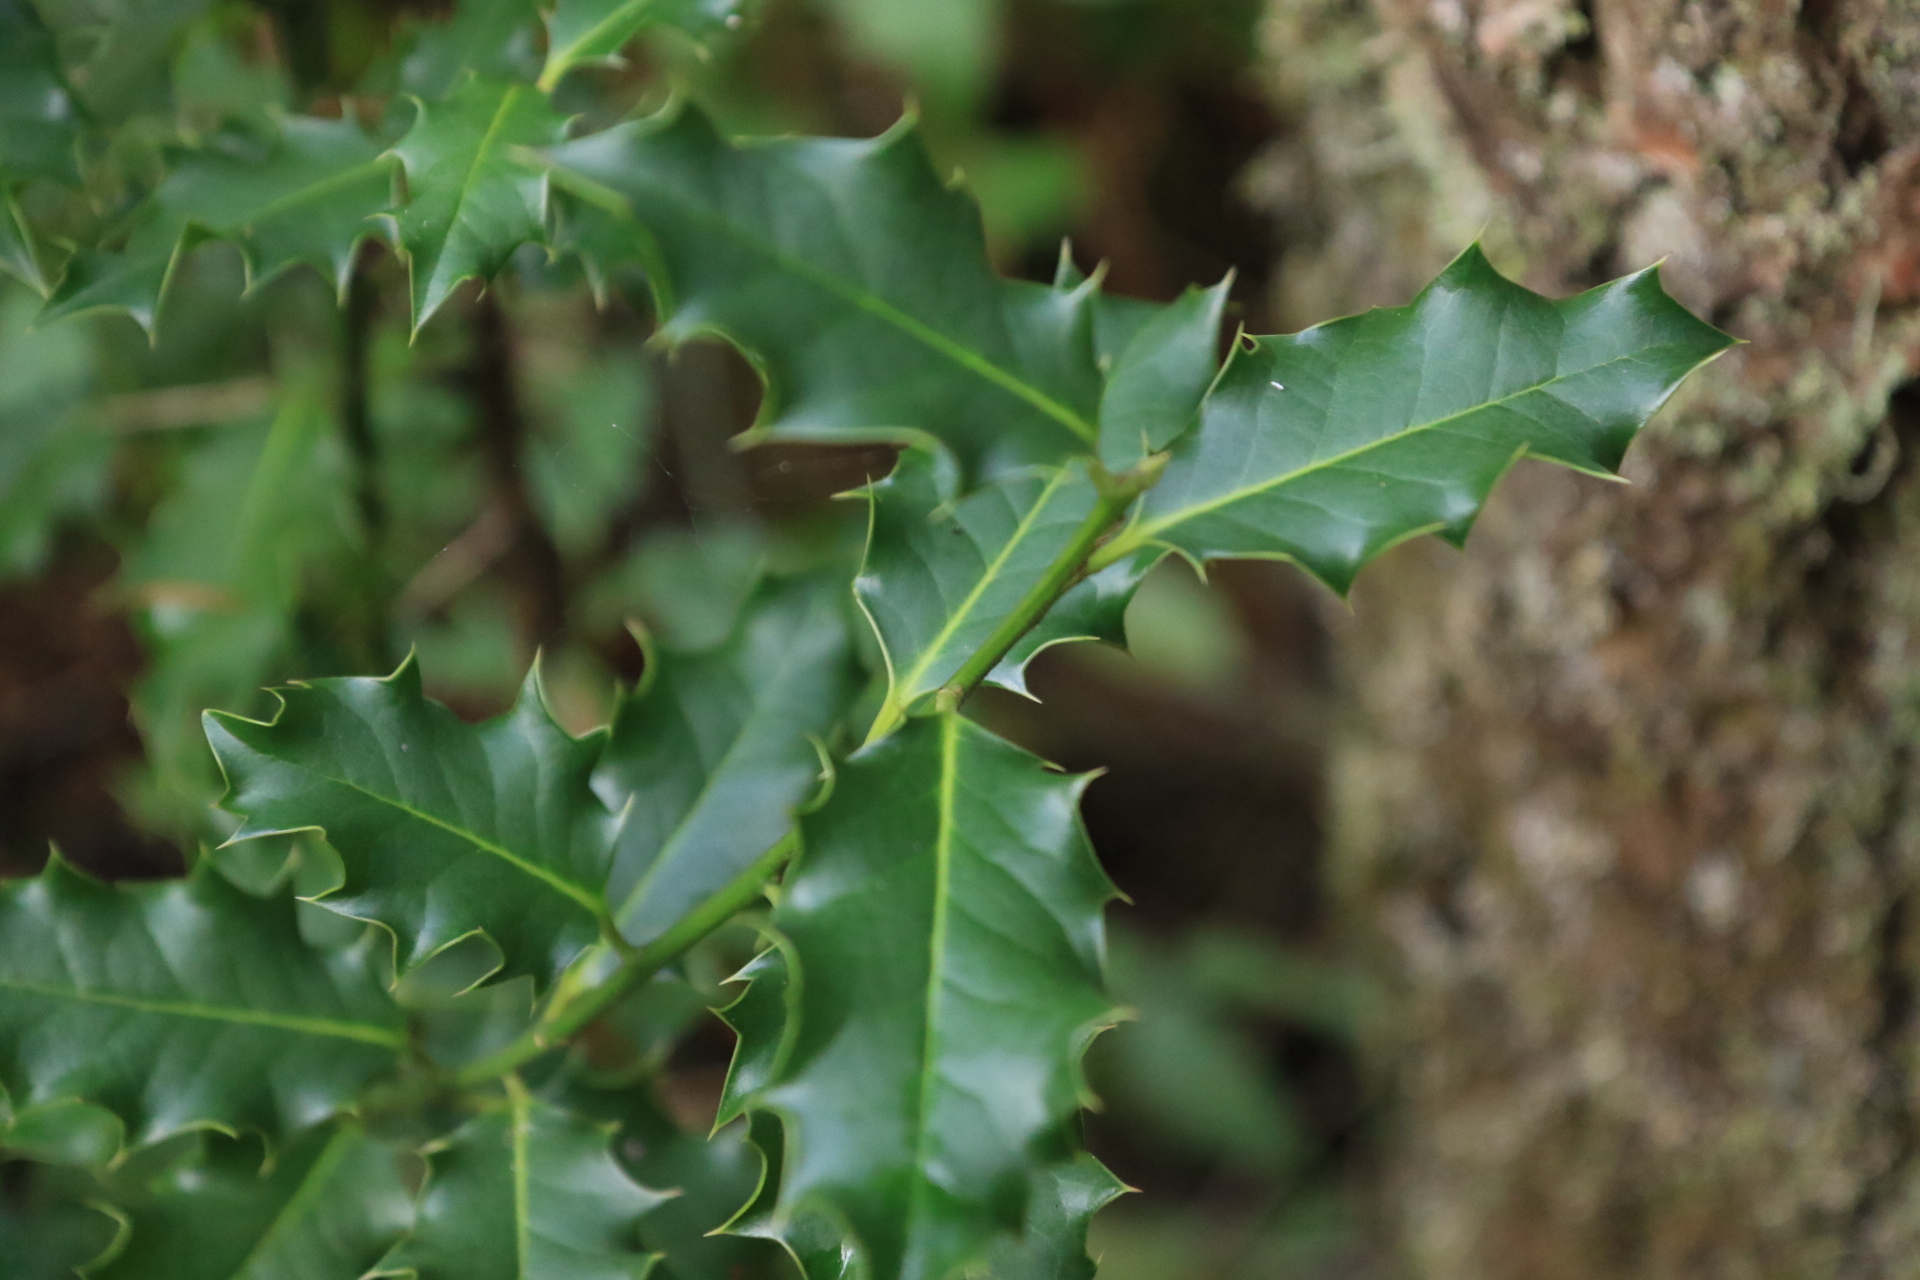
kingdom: Plantae
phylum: Tracheophyta
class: Magnoliopsida
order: Aquifoliales
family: Aquifoliaceae
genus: Ilex
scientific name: Ilex aquifolium
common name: English holly
